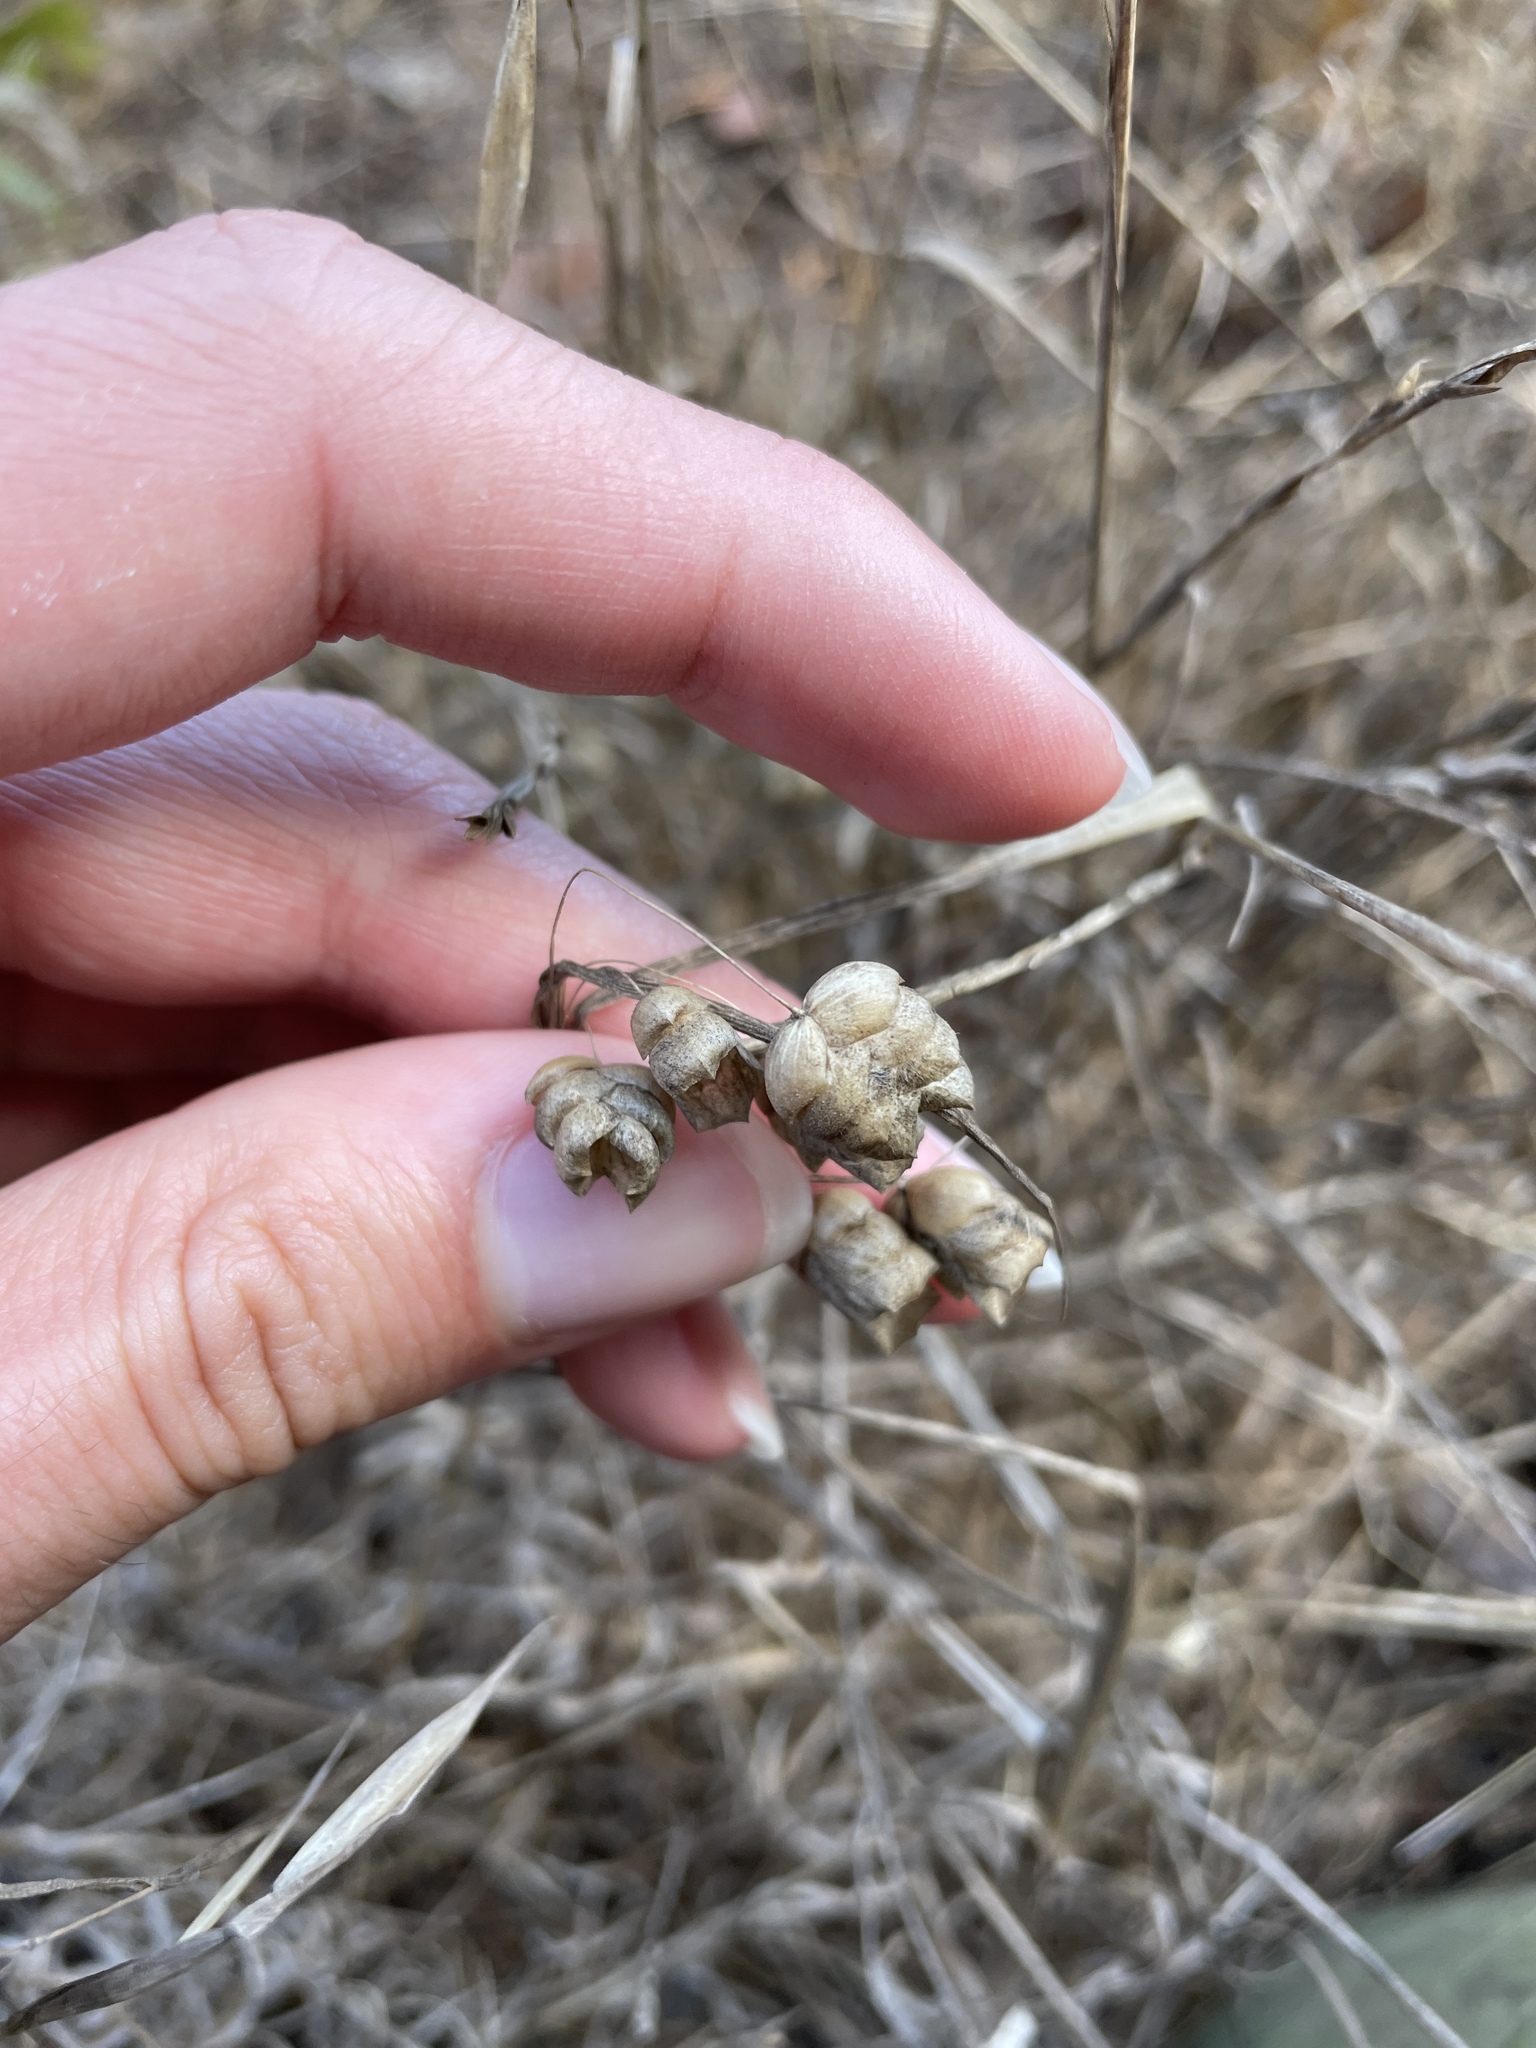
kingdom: Plantae
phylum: Tracheophyta
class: Liliopsida
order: Poales
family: Poaceae
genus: Briza
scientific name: Briza maxima
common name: Big quakinggrass
